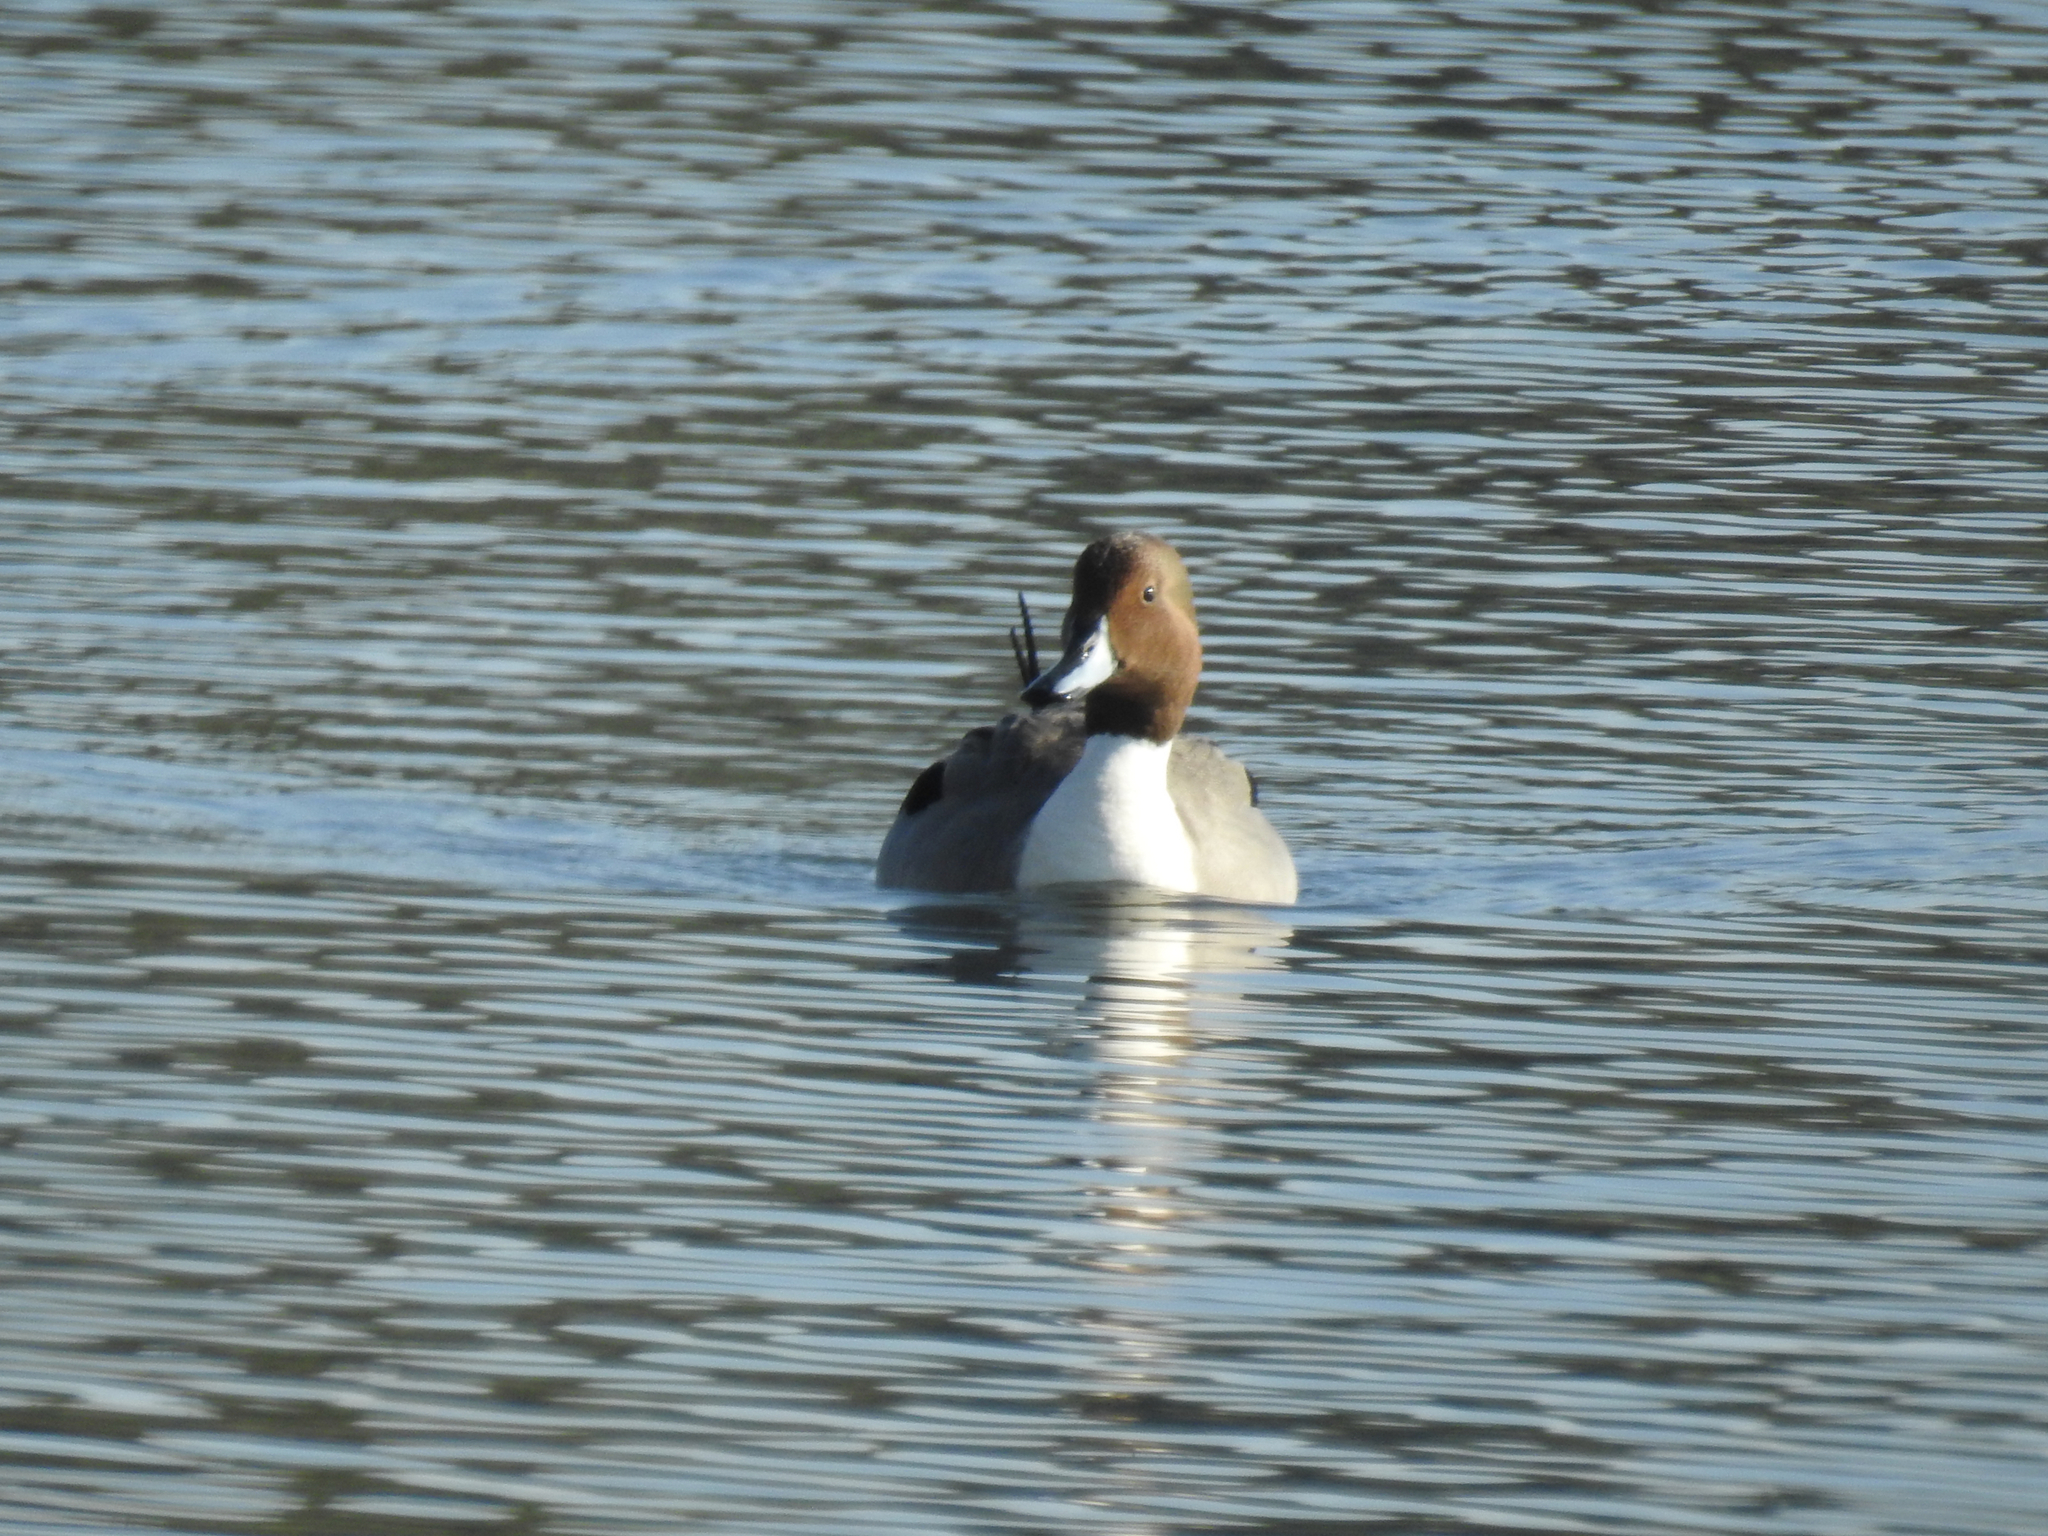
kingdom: Animalia
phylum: Chordata
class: Aves
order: Anseriformes
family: Anatidae
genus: Anas
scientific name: Anas acuta
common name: Northern pintail
